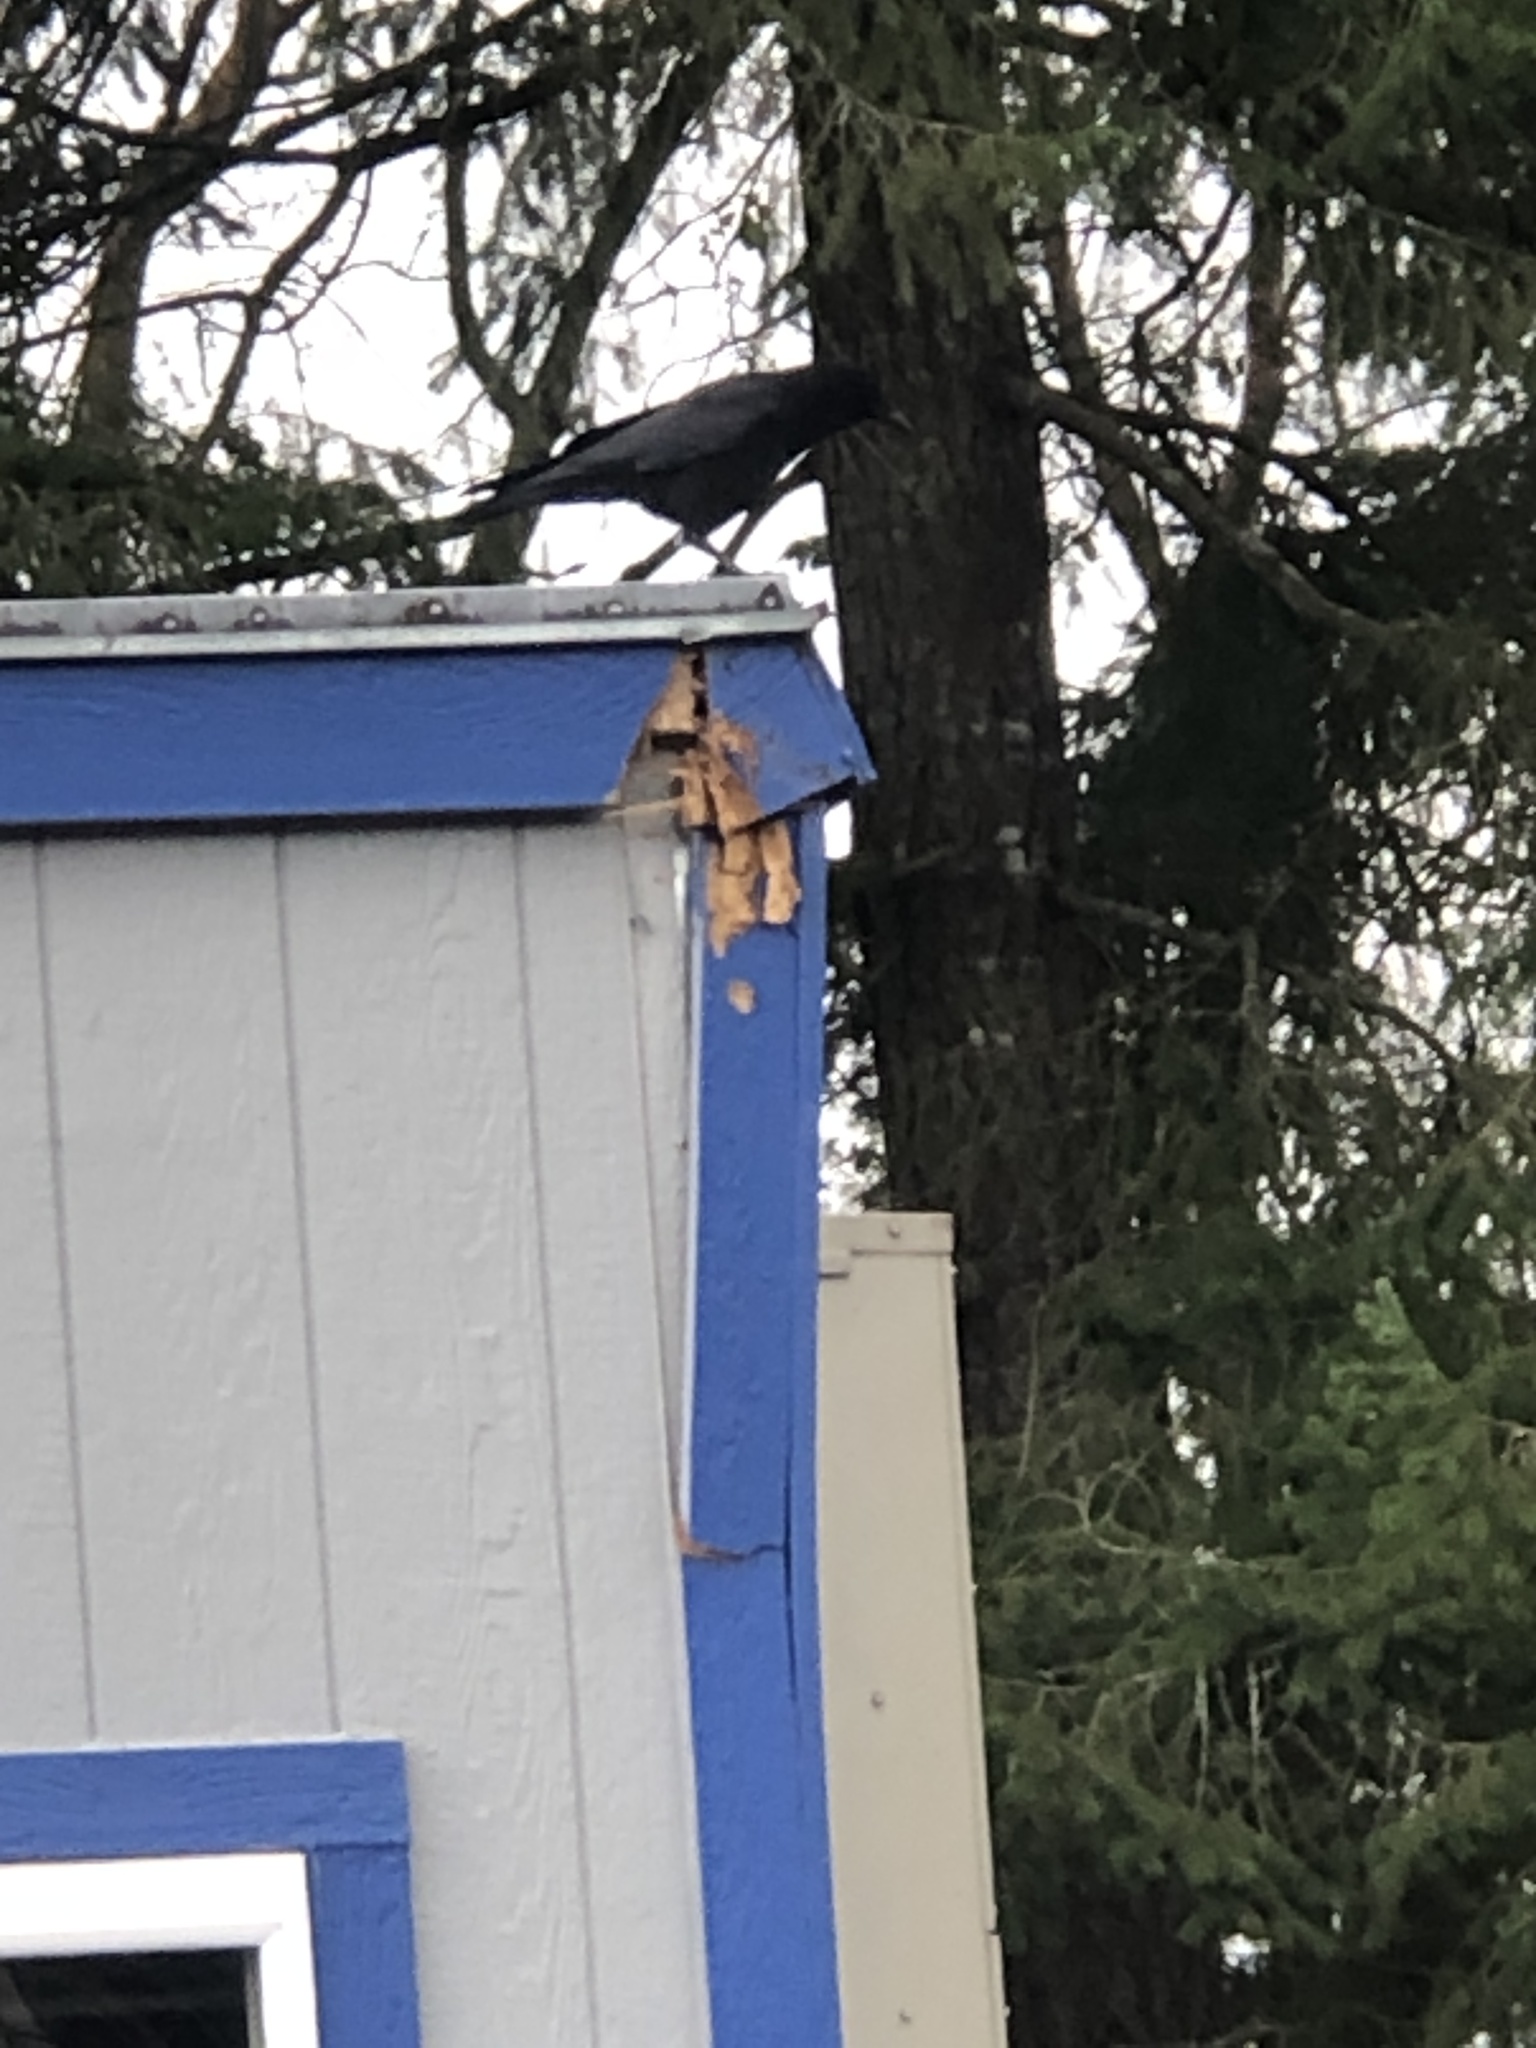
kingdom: Animalia
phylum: Chordata
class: Aves
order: Passeriformes
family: Corvidae
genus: Corvus
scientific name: Corvus brachyrhynchos
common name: American crow
